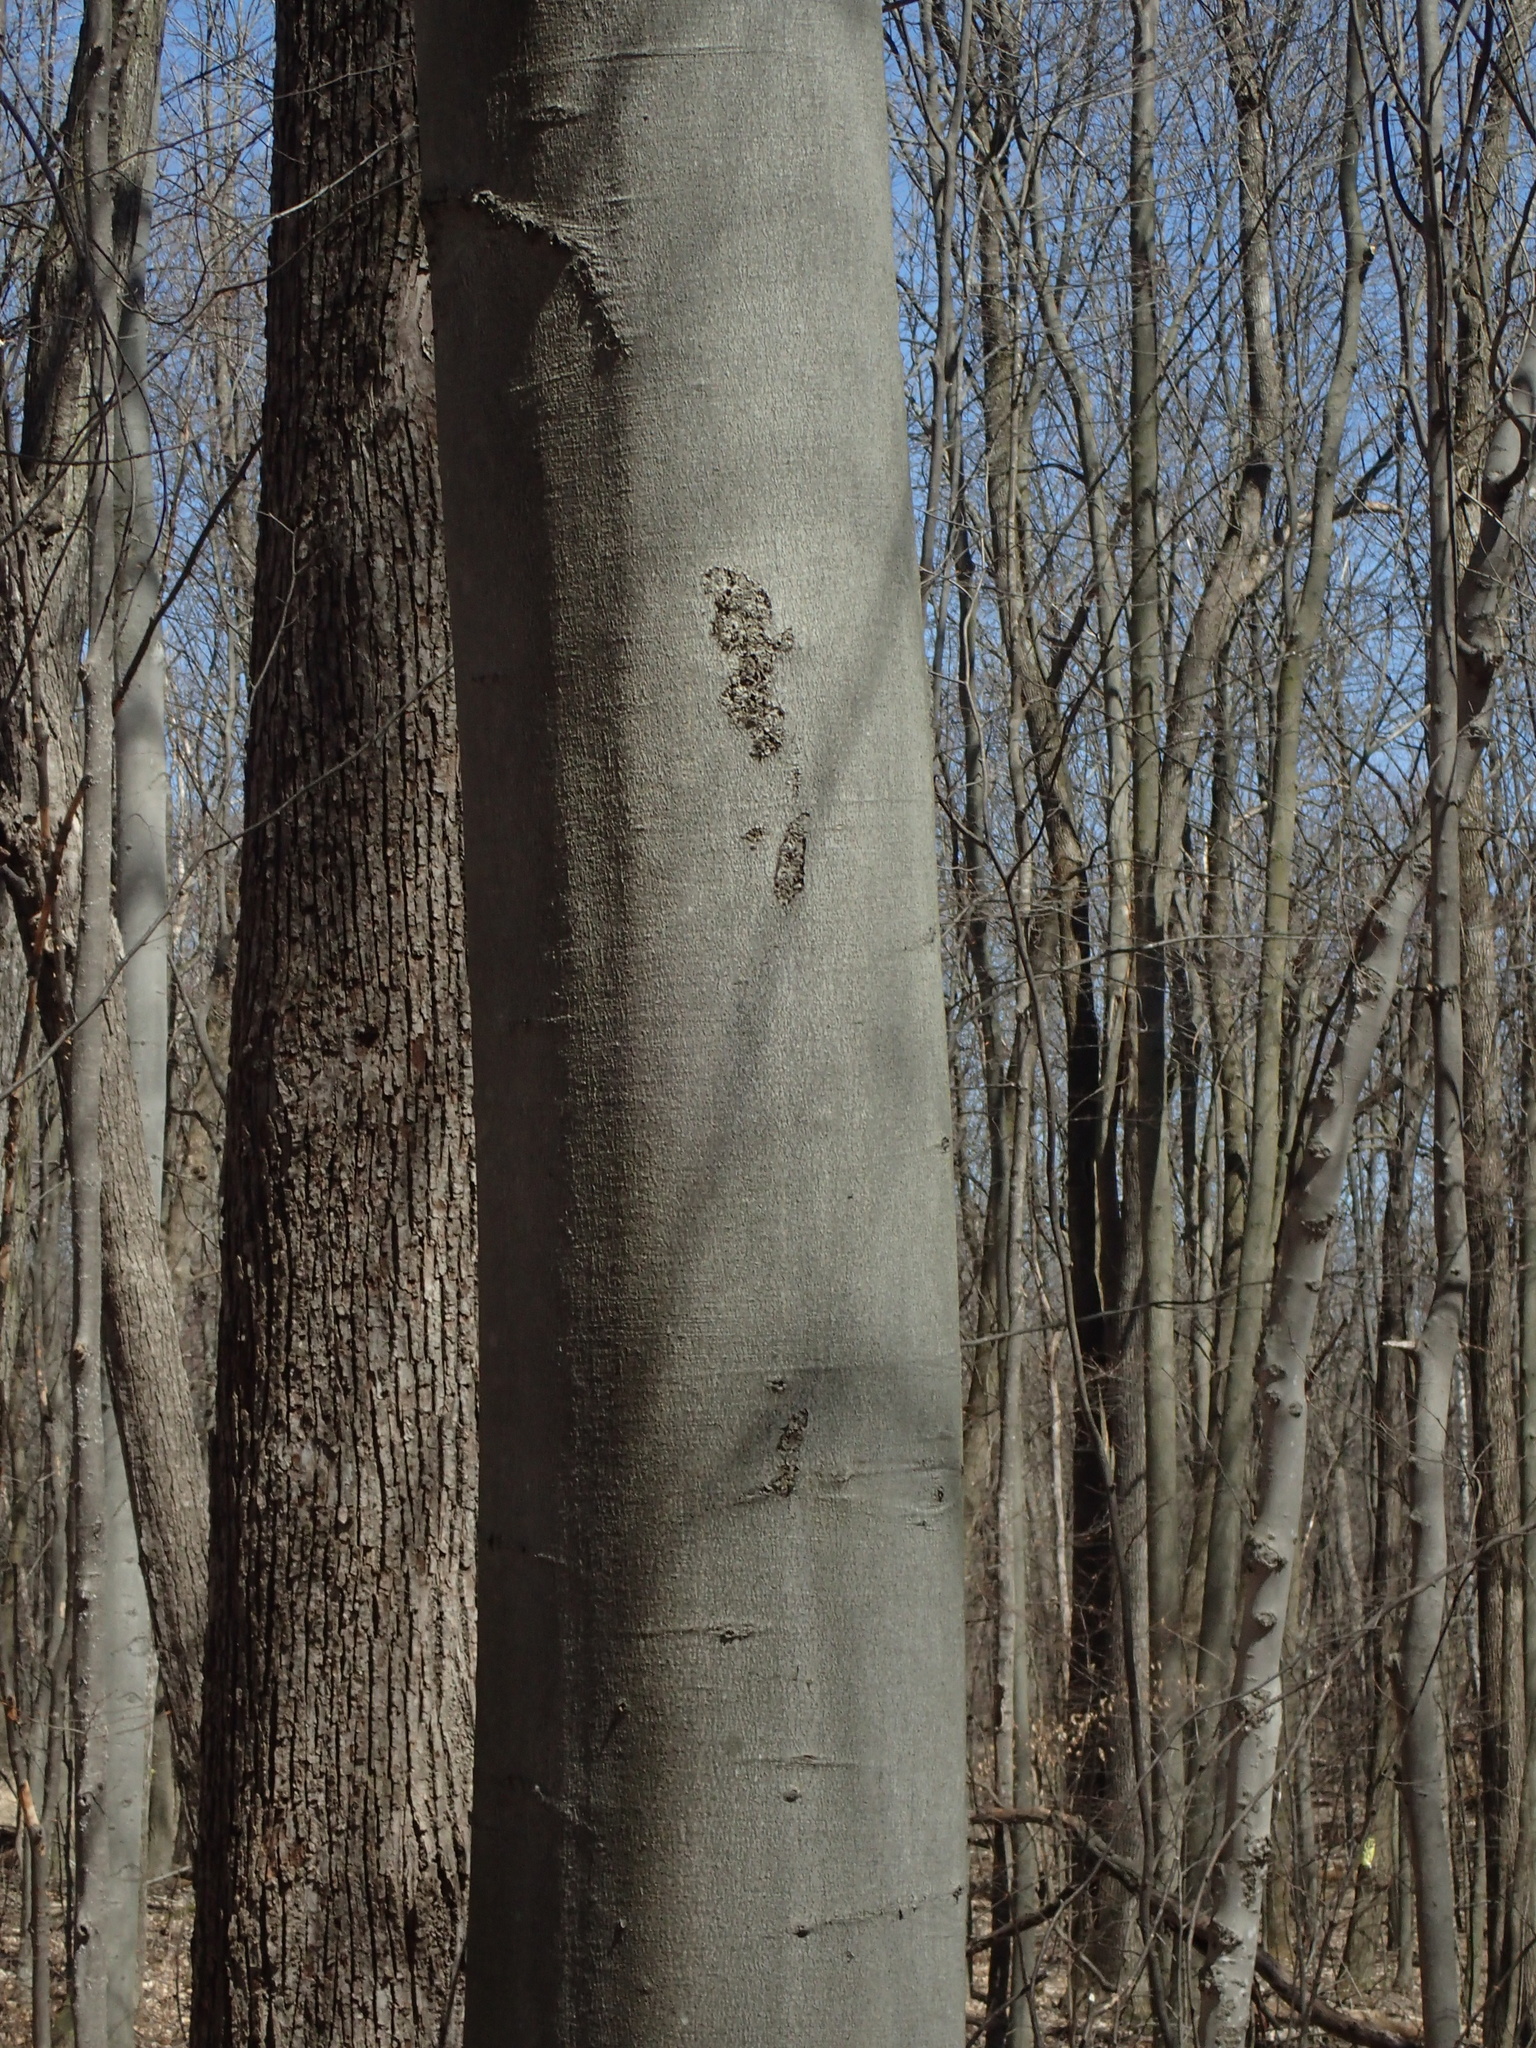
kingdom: Plantae
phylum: Tracheophyta
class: Magnoliopsida
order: Fagales
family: Fagaceae
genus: Fagus
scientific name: Fagus grandifolia
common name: American beech
